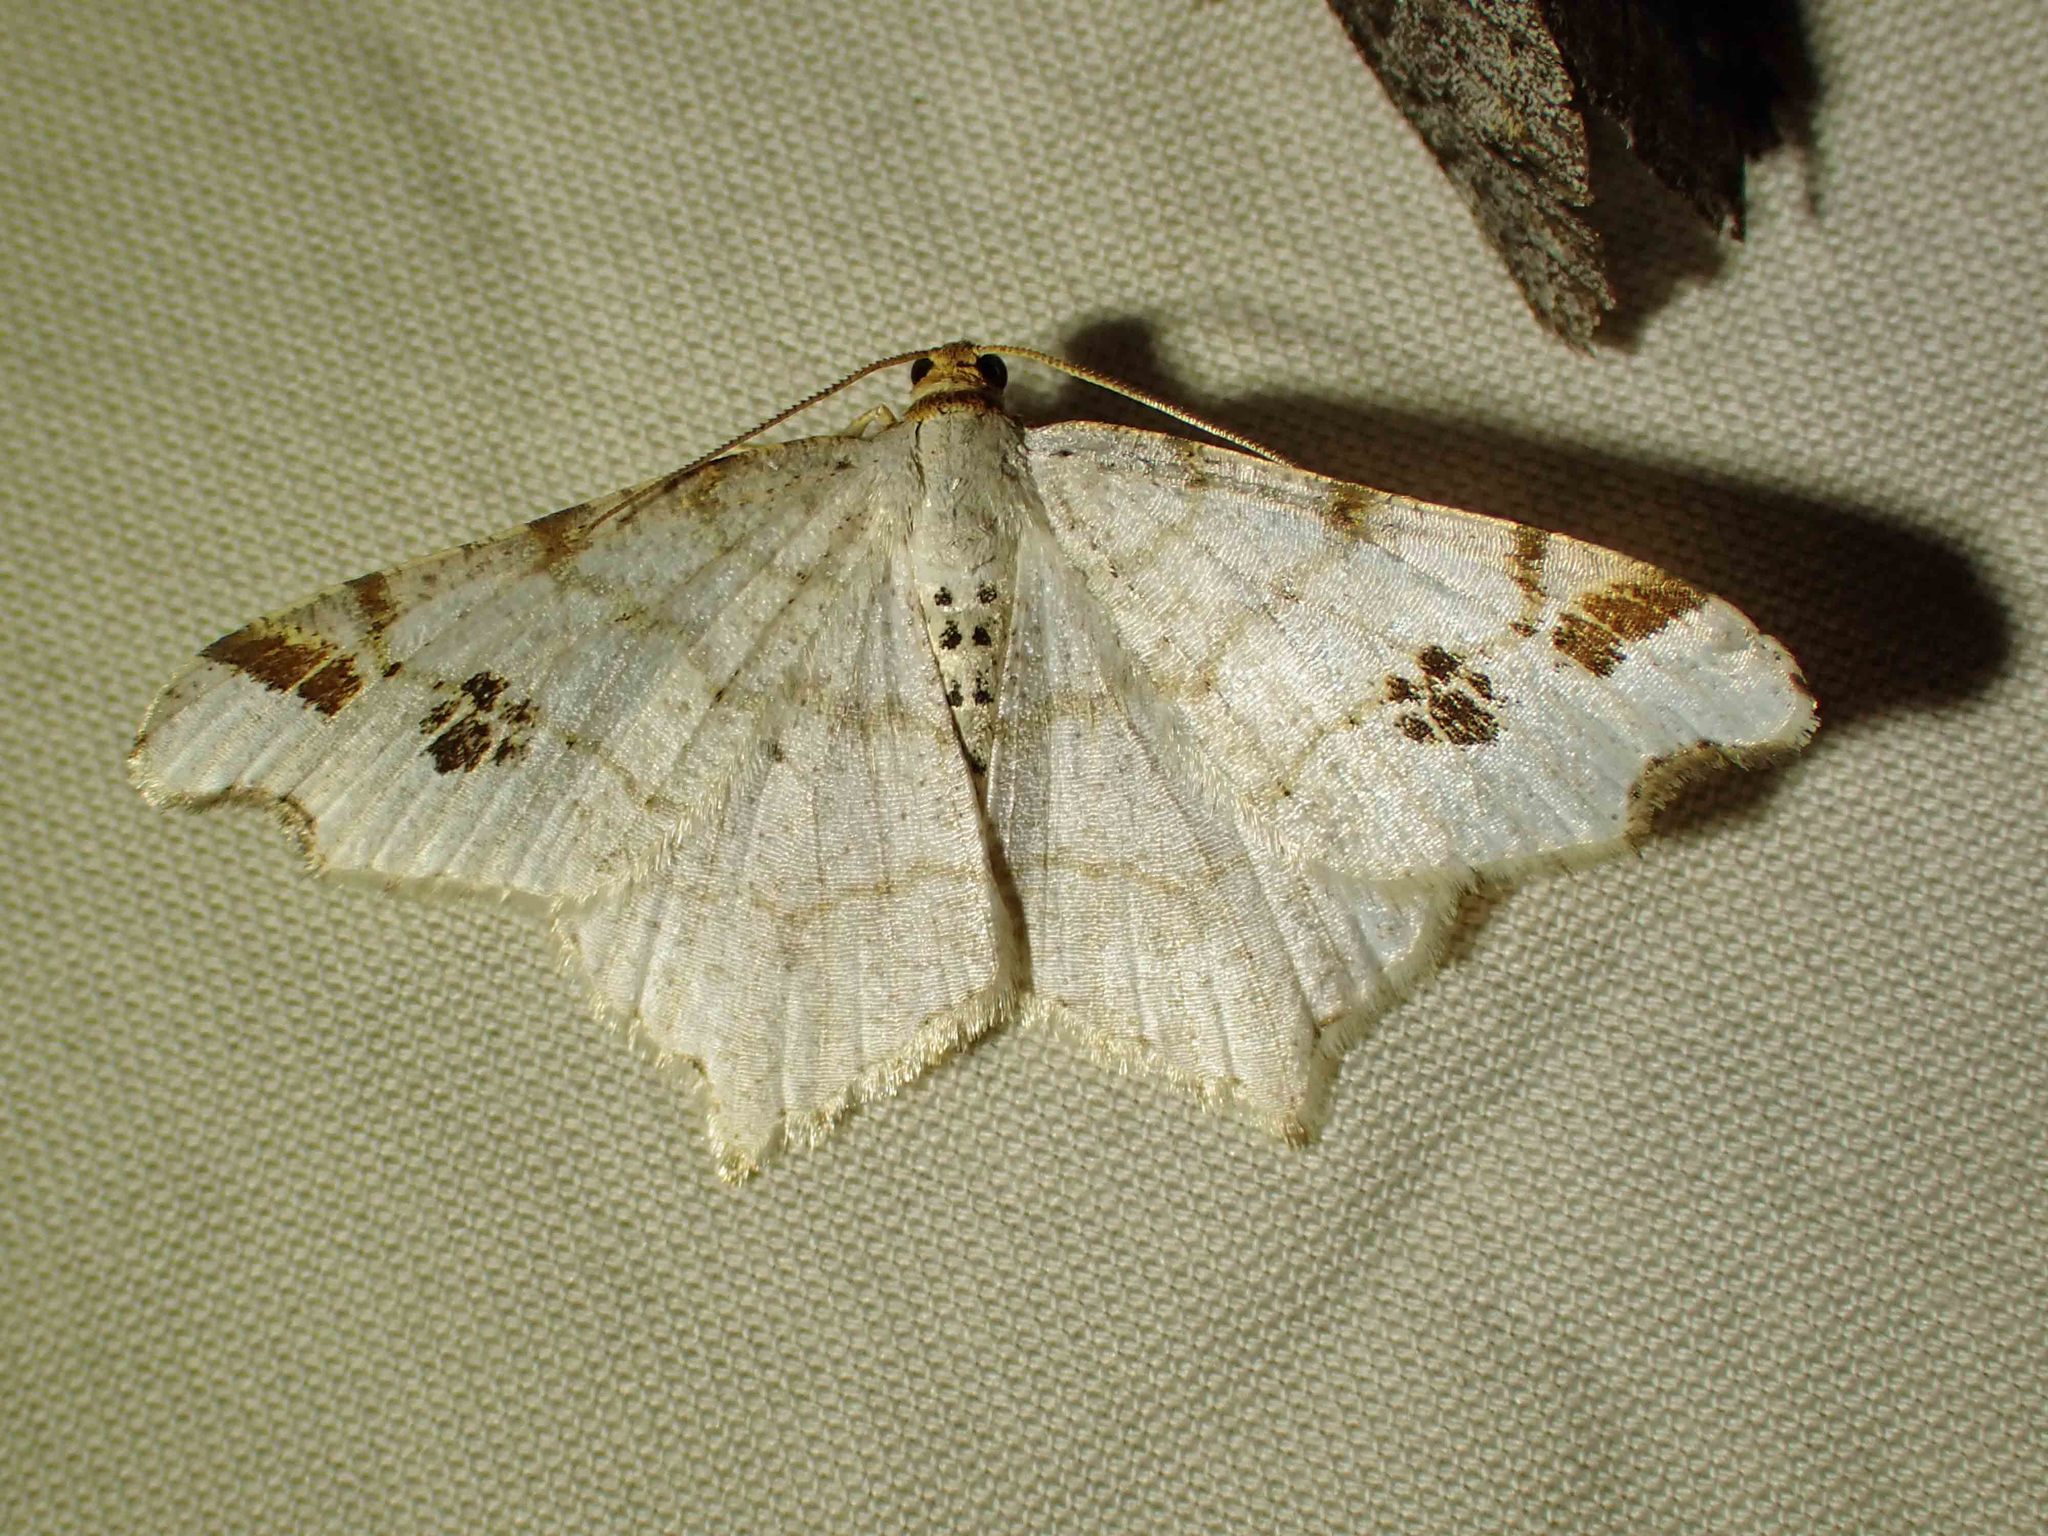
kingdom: Animalia
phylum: Arthropoda
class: Insecta
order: Lepidoptera
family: Geometridae
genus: Macaria
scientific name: Macaria ulsterata
